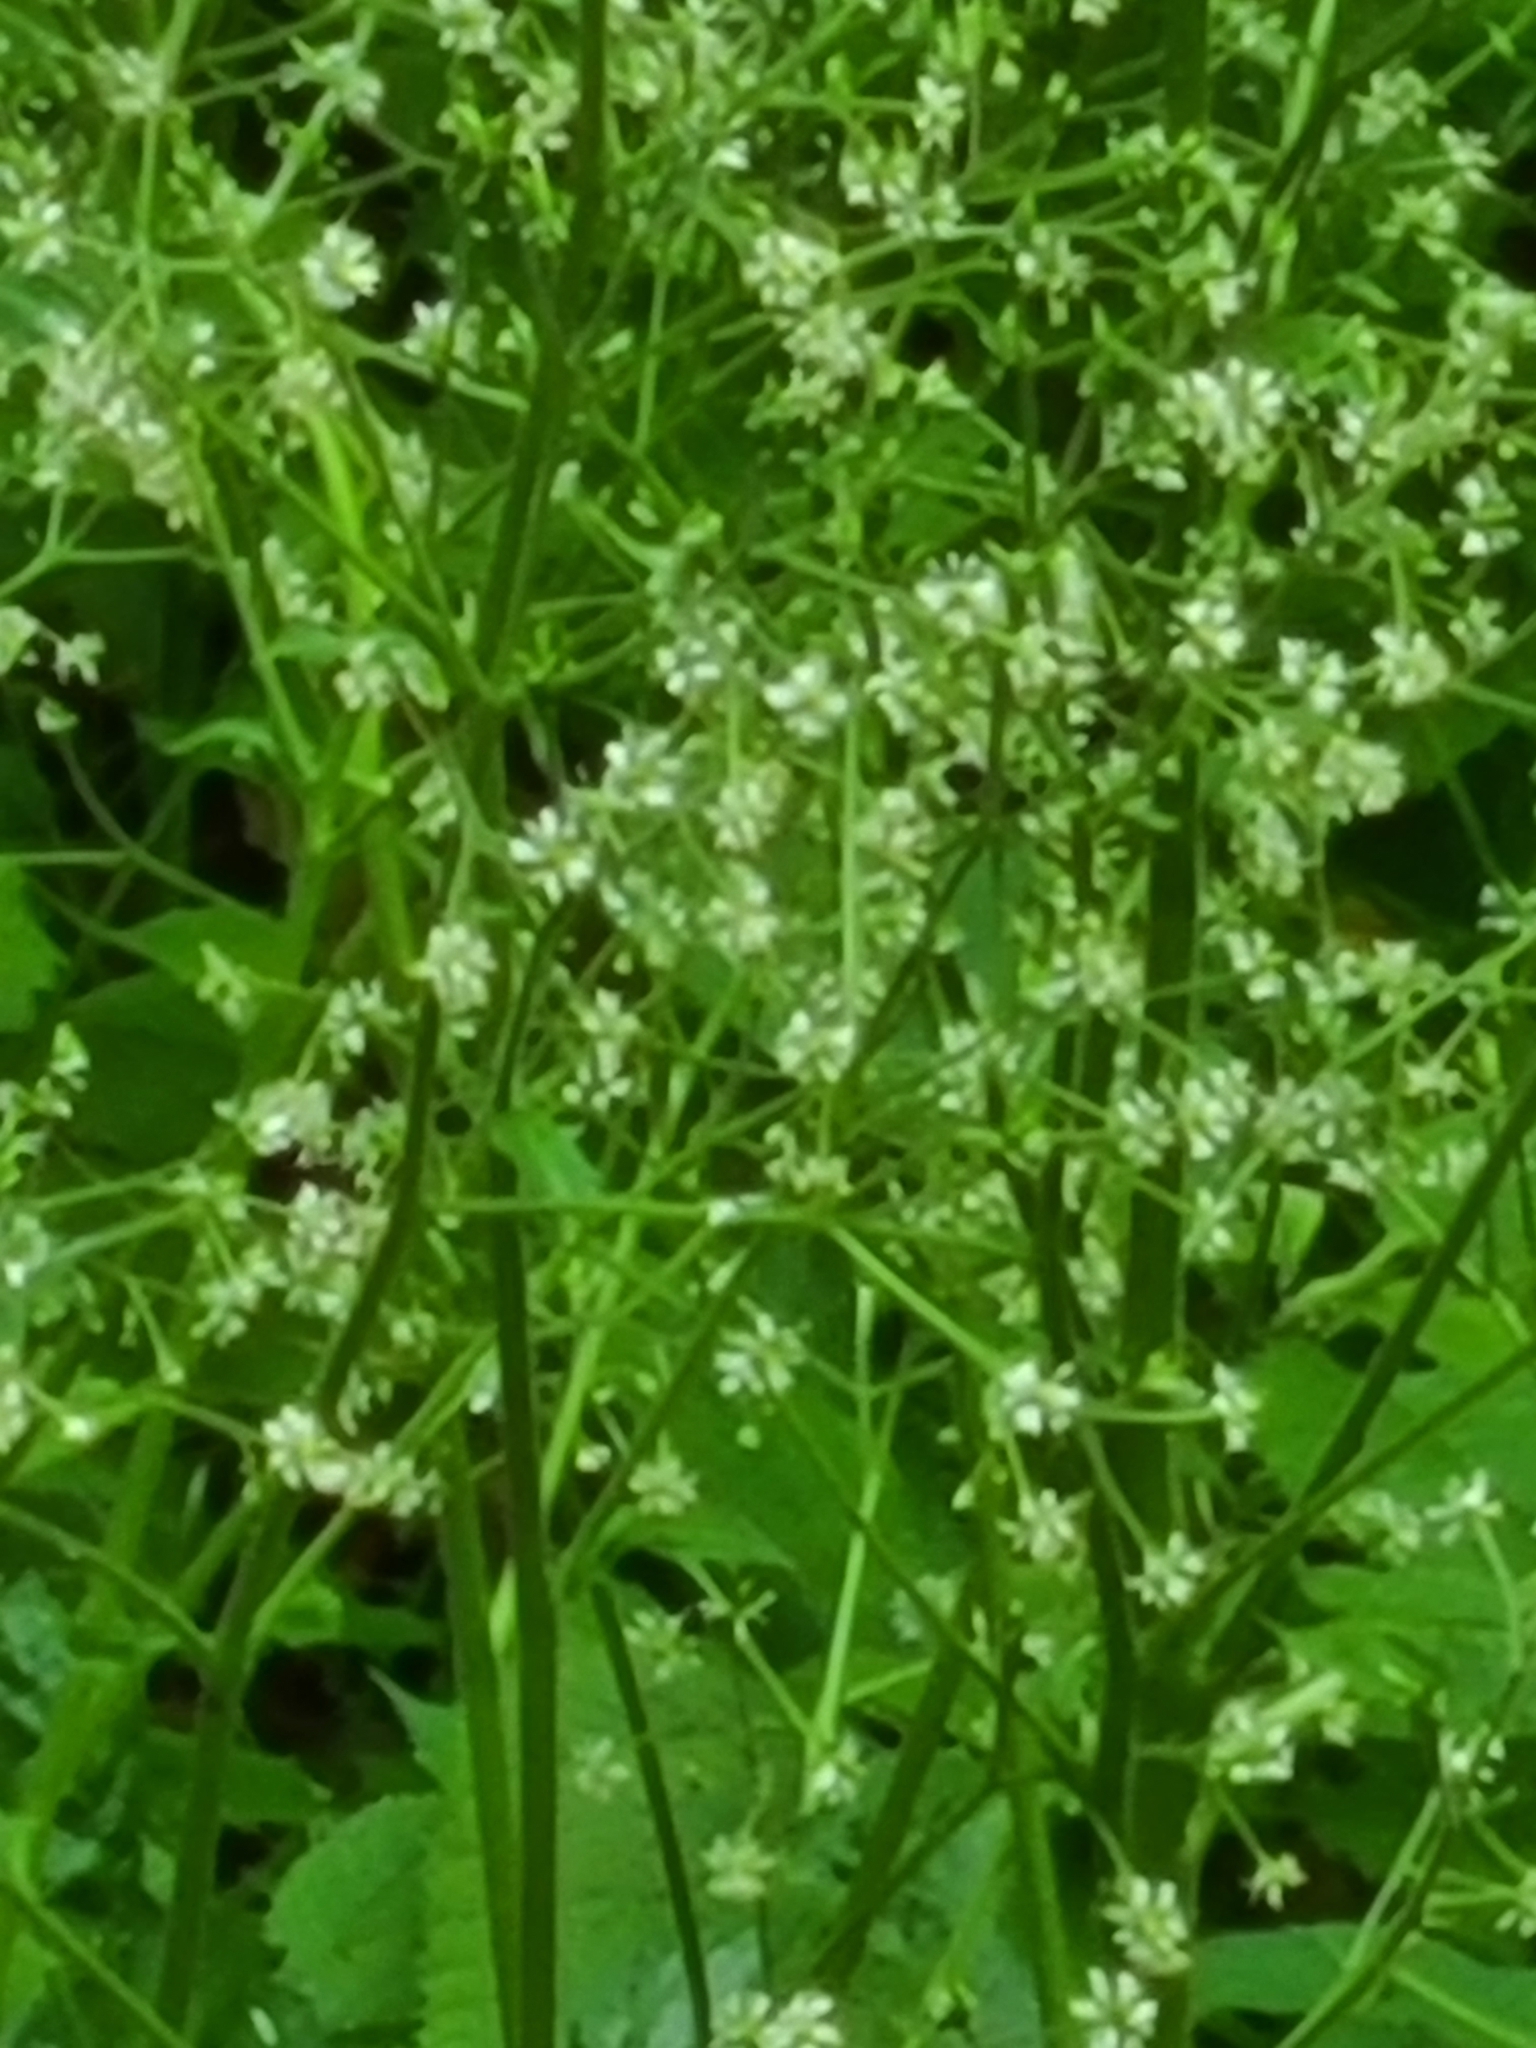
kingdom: Plantae
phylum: Tracheophyta
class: Magnoliopsida
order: Saxifragales
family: Saxifragaceae
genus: Micranthes
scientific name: Micranthes micranthidifolia
